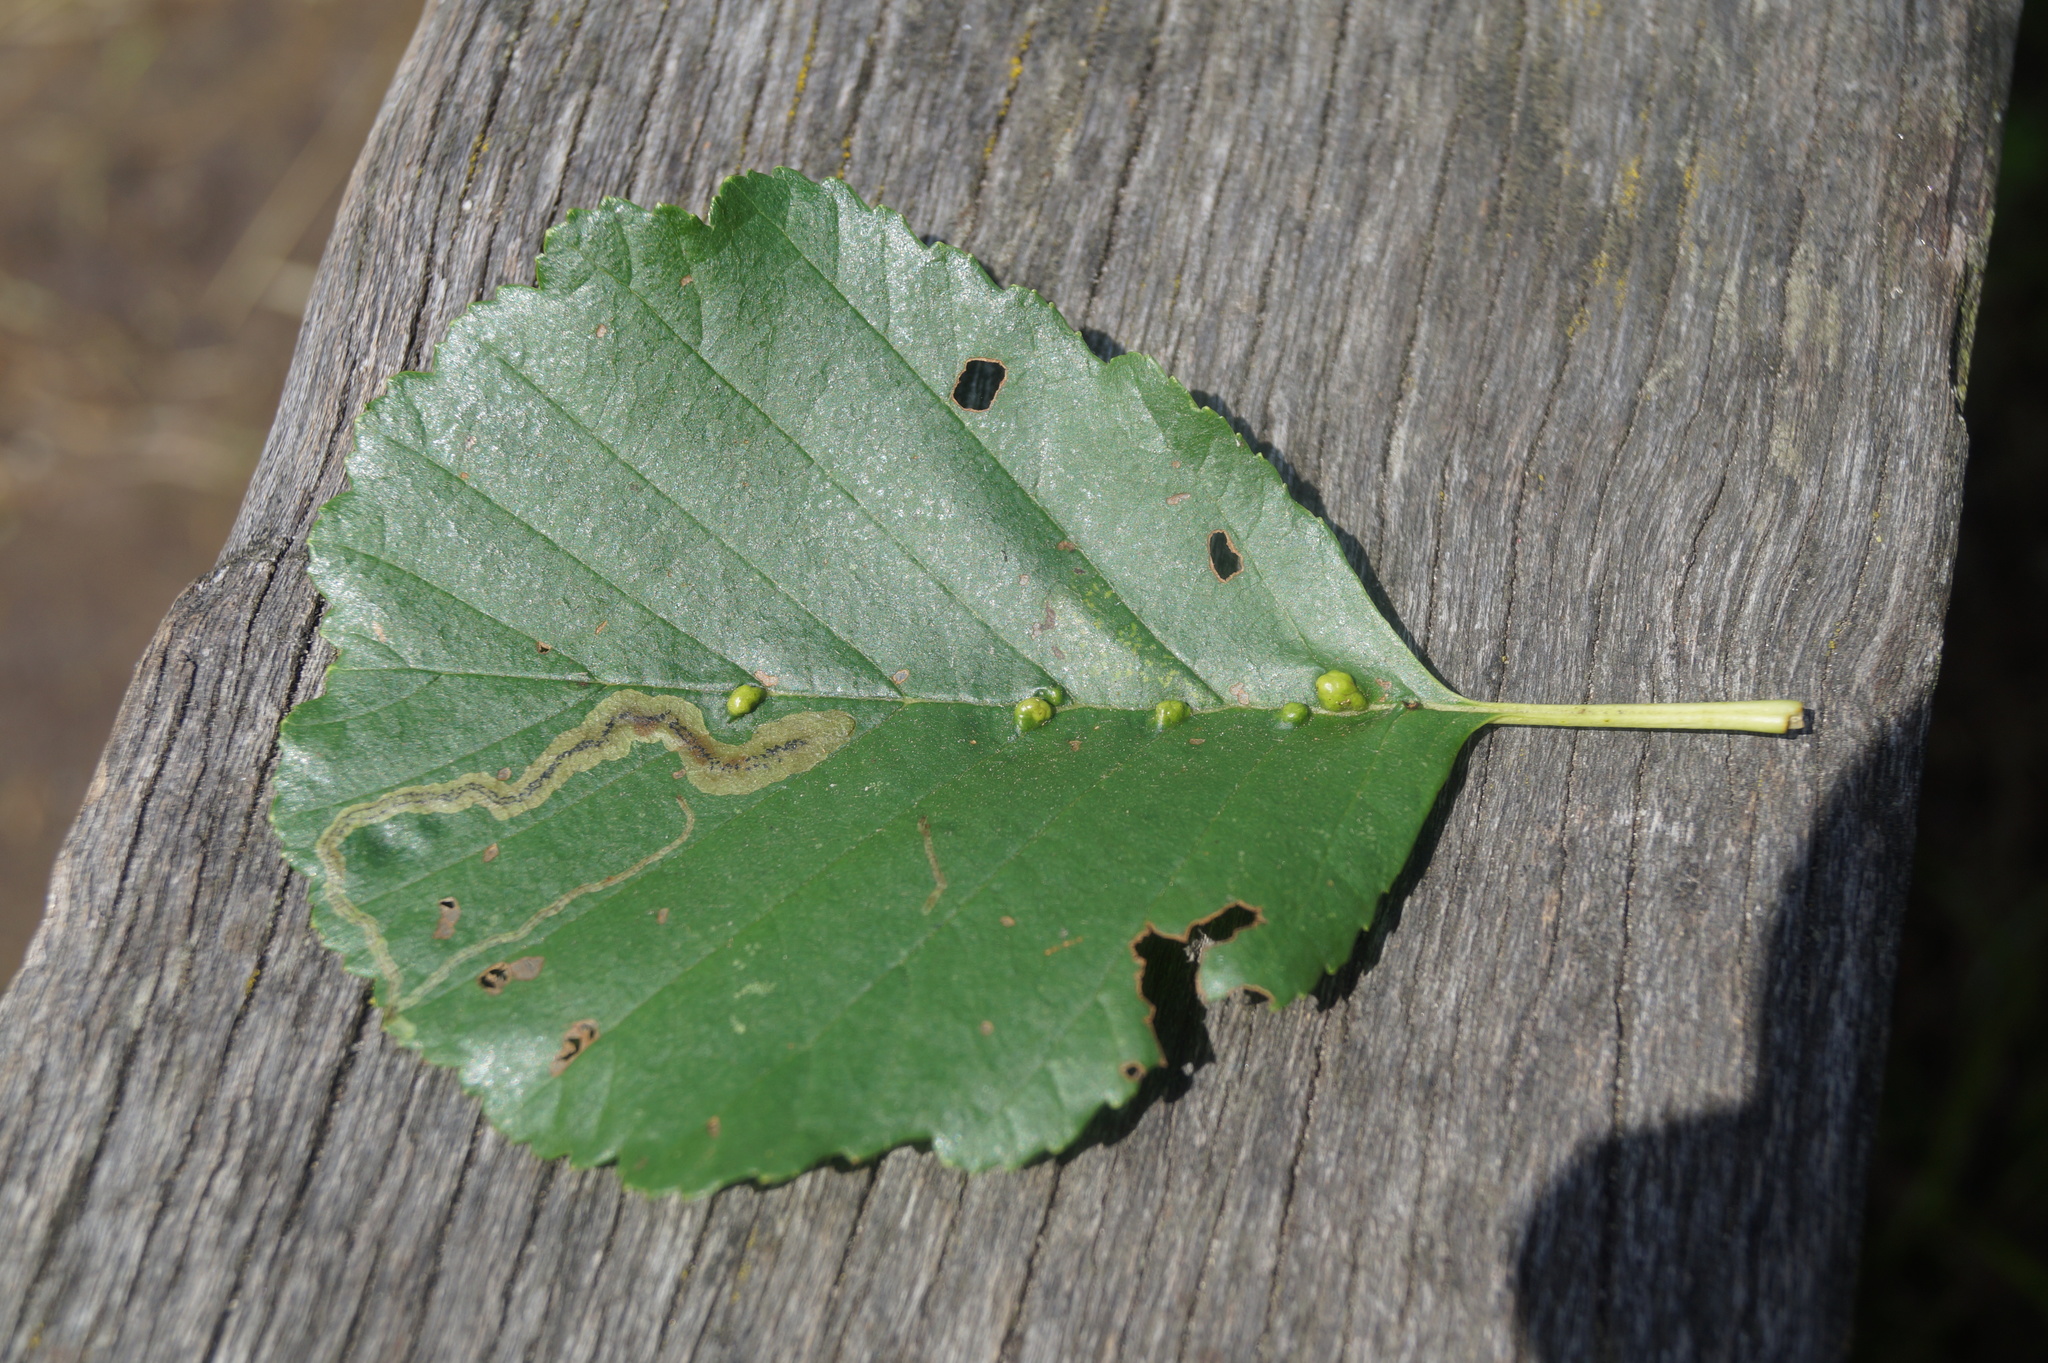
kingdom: Plantae
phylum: Tracheophyta
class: Magnoliopsida
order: Fagales
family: Betulaceae
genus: Alnus
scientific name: Alnus glutinosa
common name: Black alder
